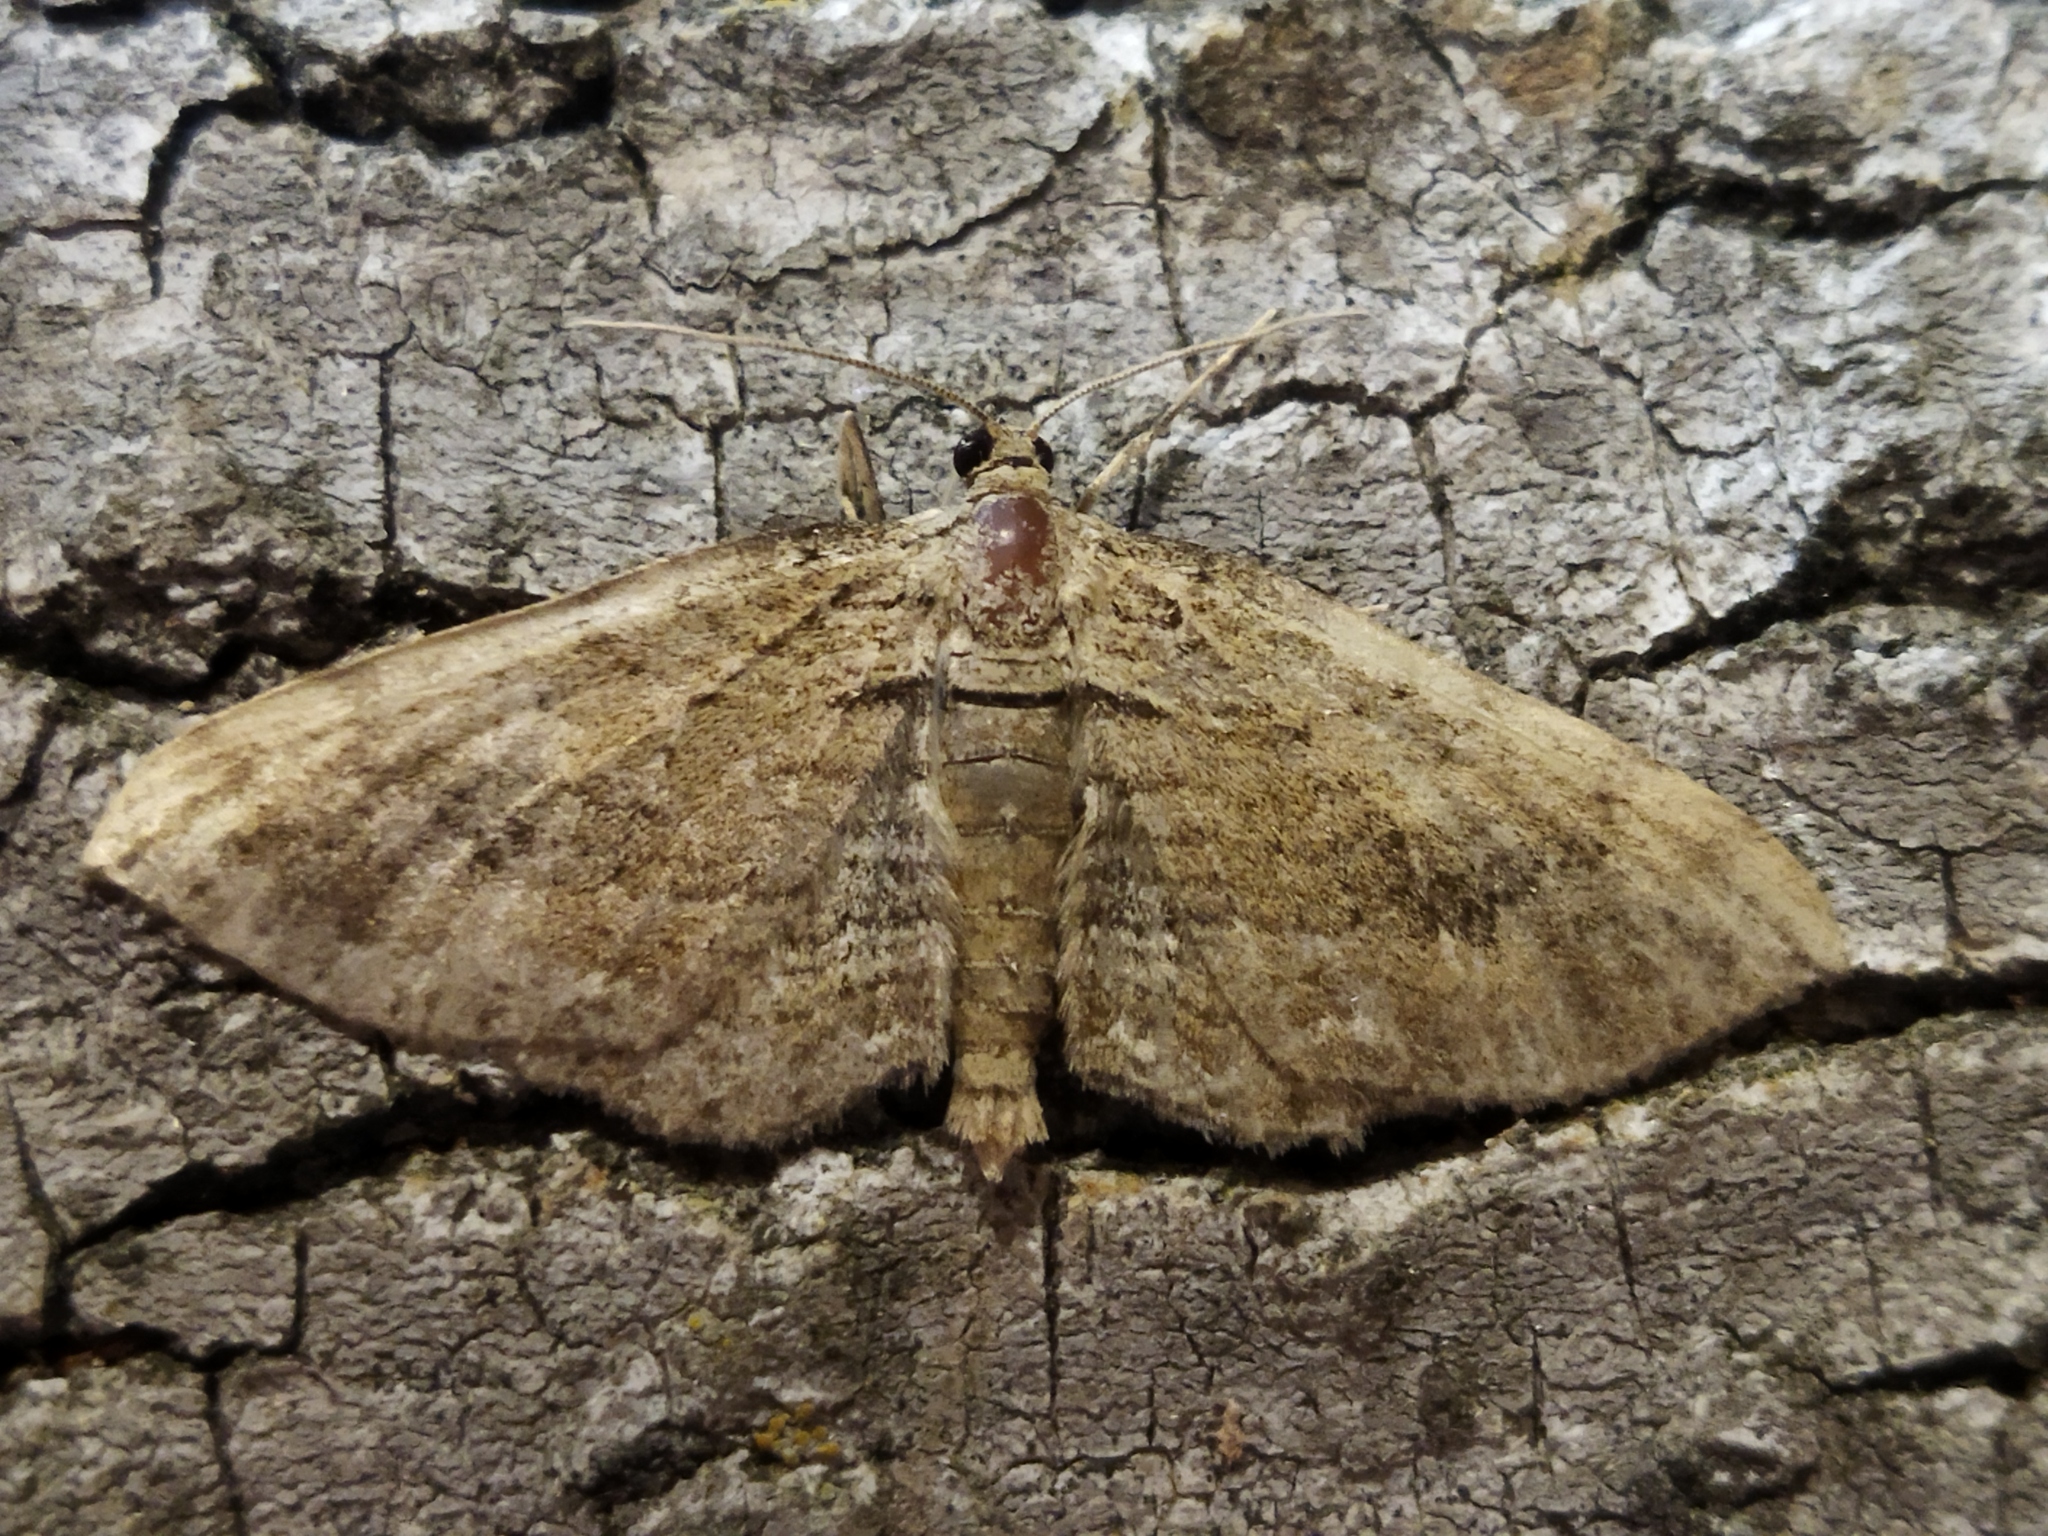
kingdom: Animalia
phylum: Arthropoda
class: Insecta
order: Lepidoptera
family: Geometridae
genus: Horisme
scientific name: Horisme
